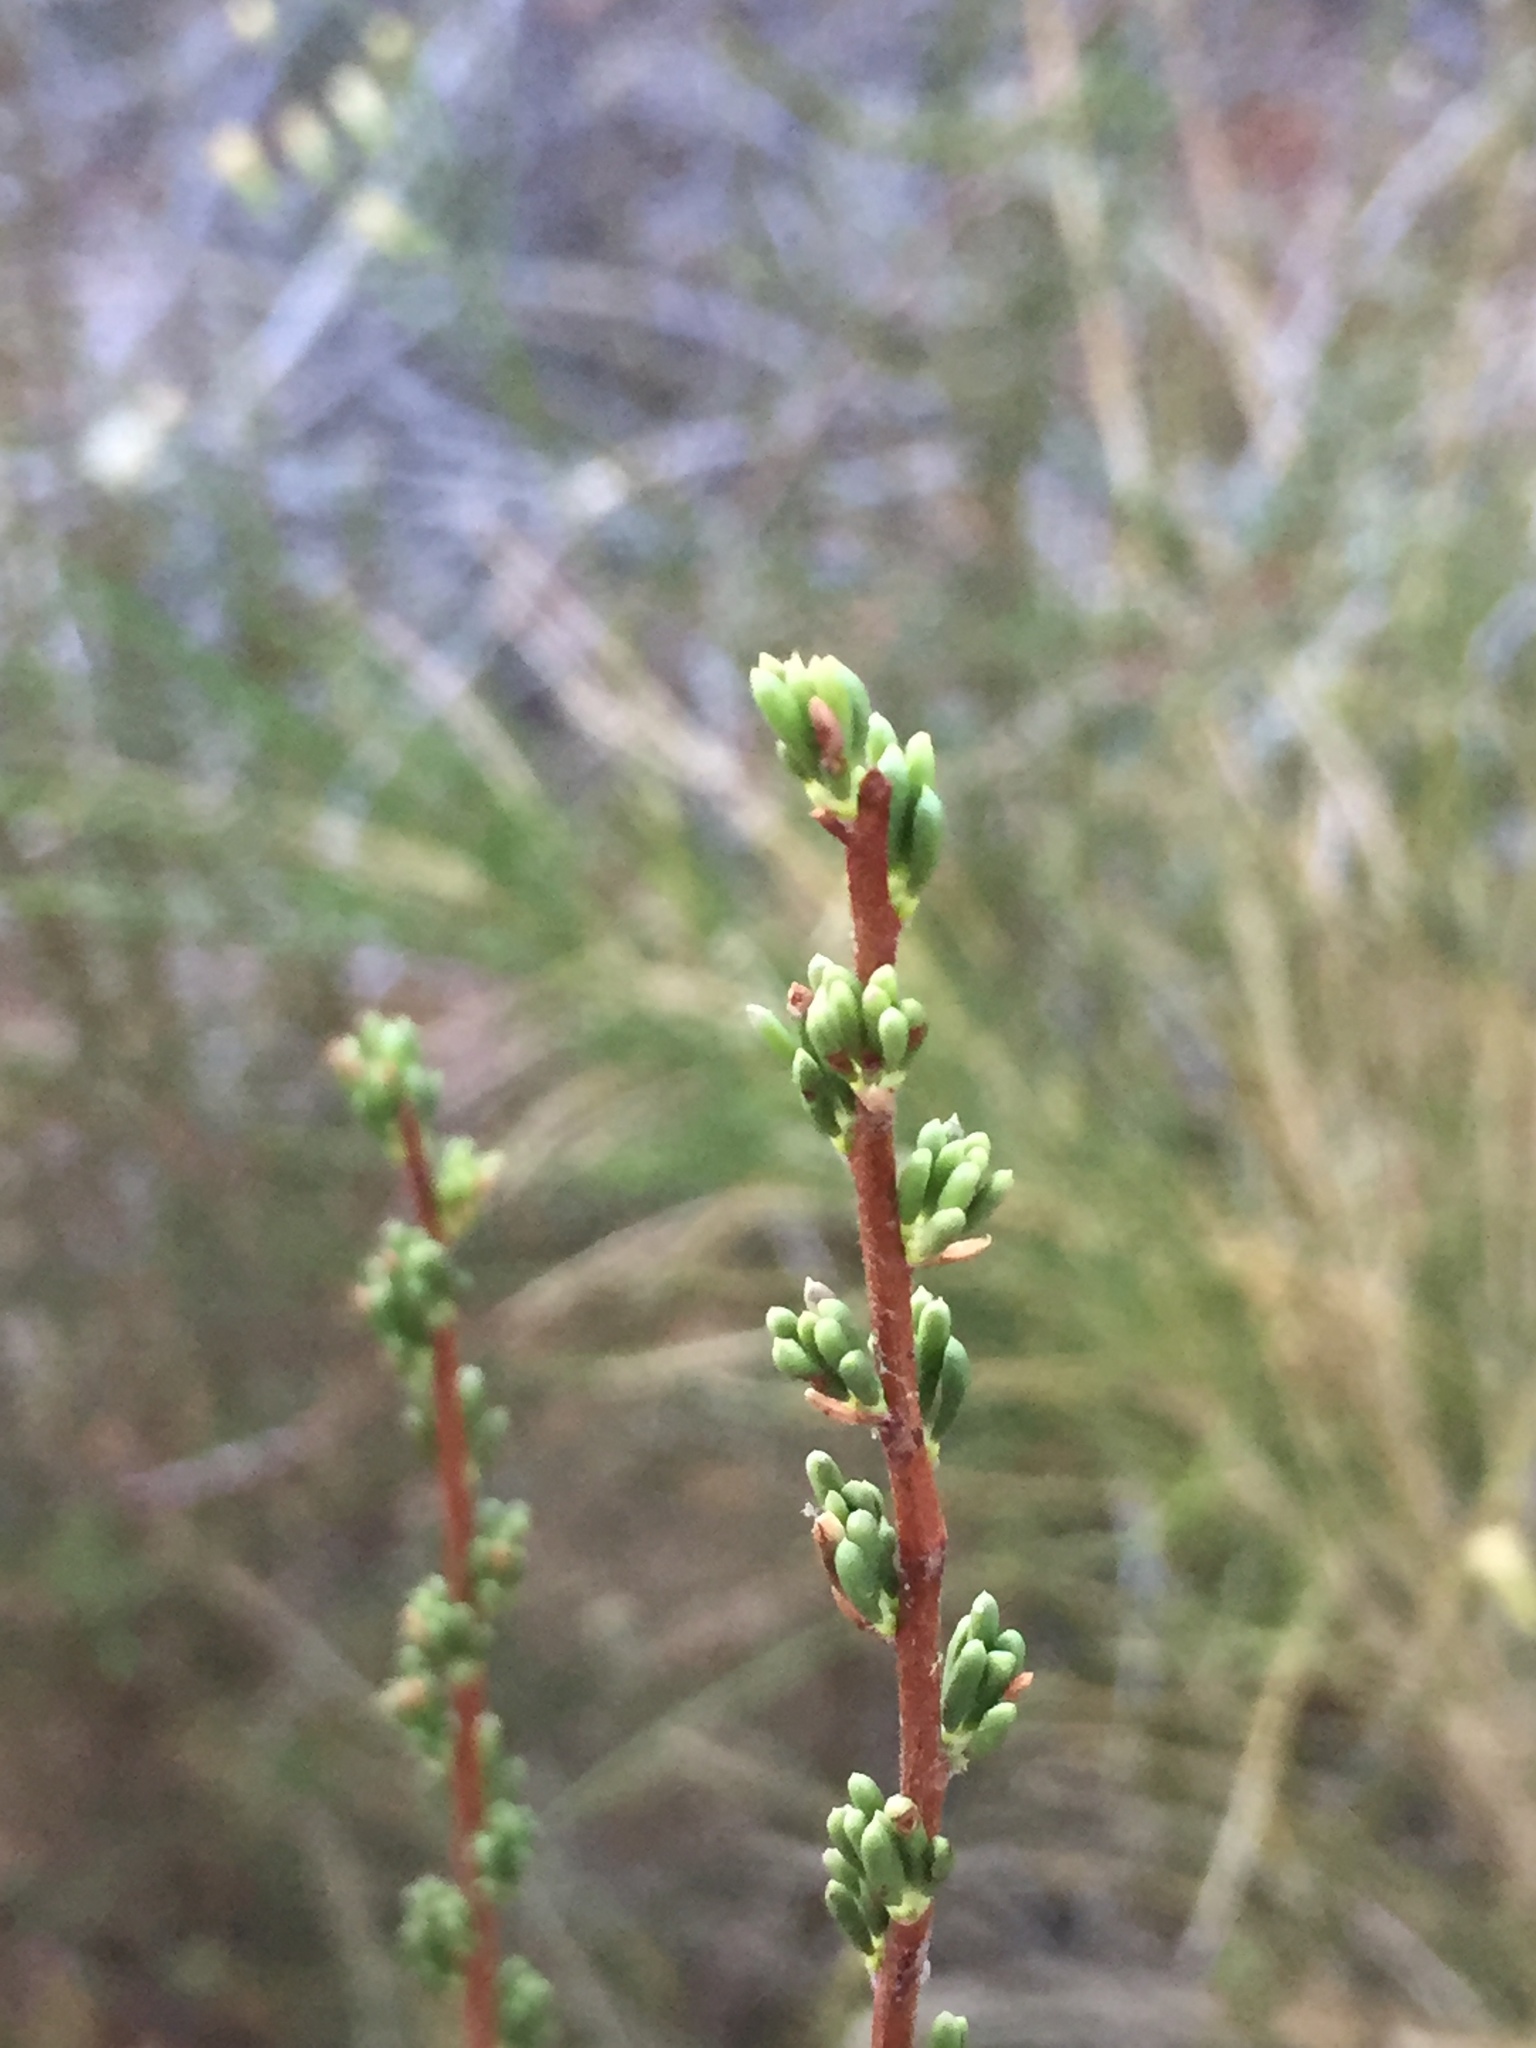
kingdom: Plantae
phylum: Tracheophyta
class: Magnoliopsida
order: Rosales
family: Rosaceae
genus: Adenostoma
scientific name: Adenostoma fasciculatum
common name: Chamise
